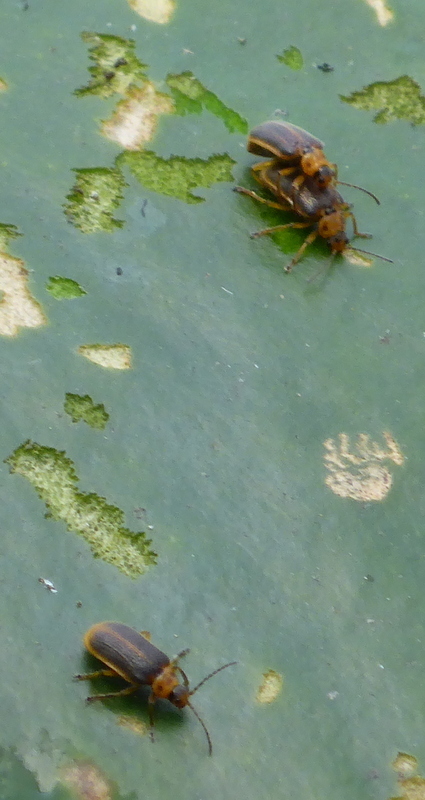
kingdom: Animalia
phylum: Arthropoda
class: Insecta
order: Coleoptera
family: Chrysomelidae
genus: Galerucella
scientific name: Galerucella nymphaeae
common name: Leaf beetle
